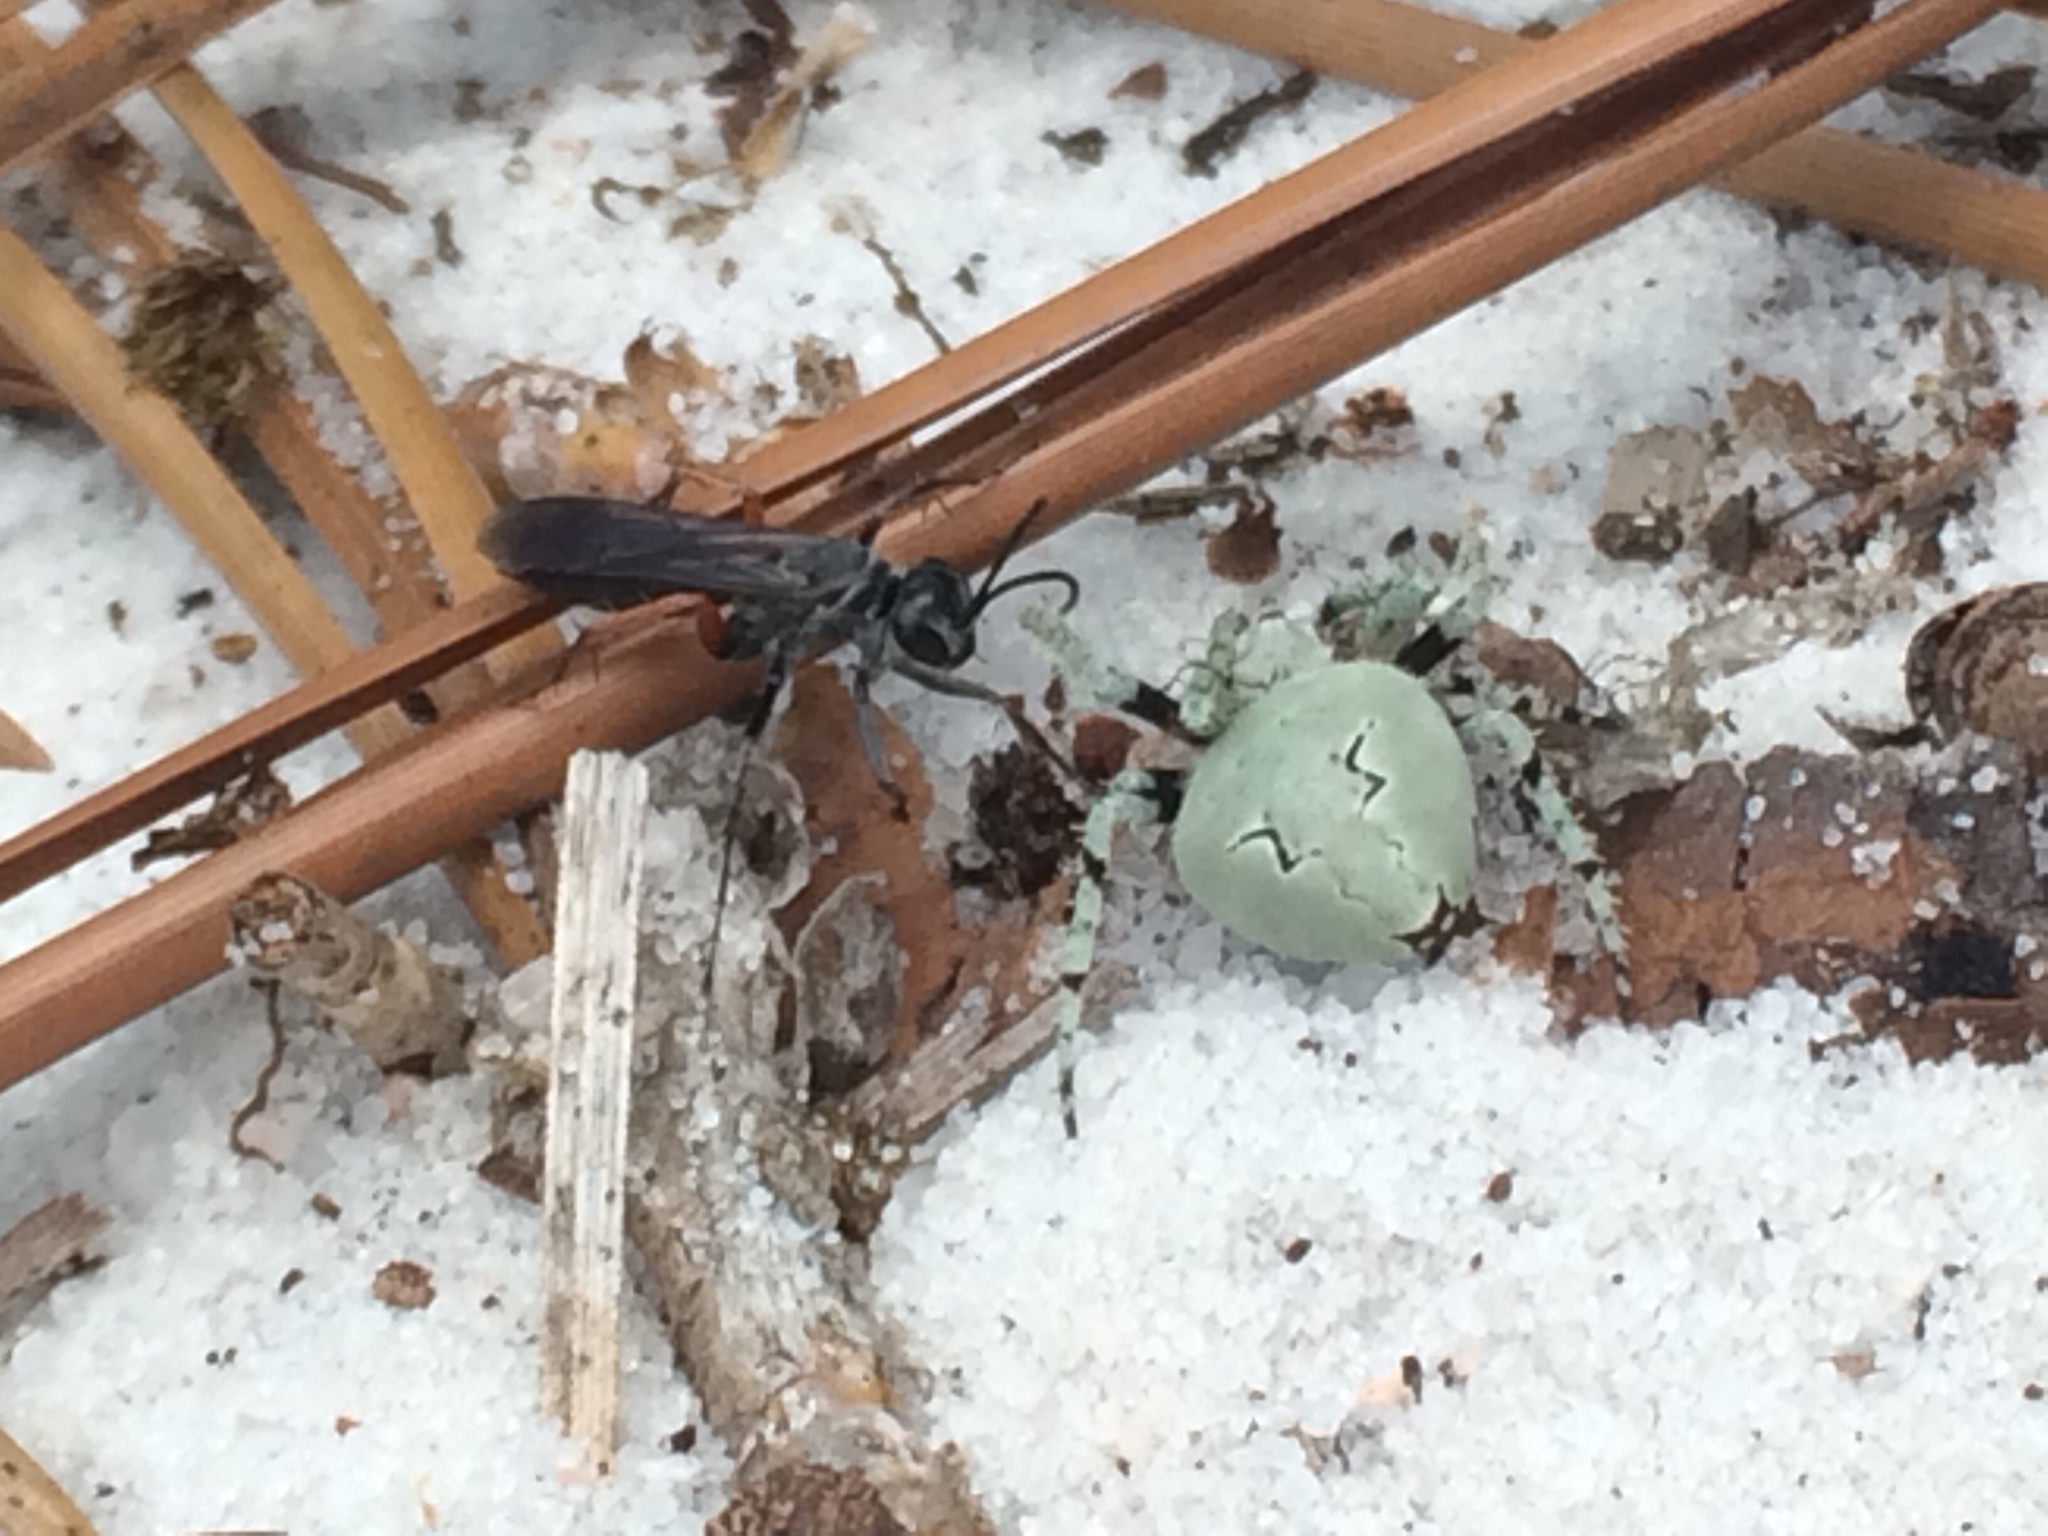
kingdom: Animalia
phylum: Arthropoda
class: Arachnida
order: Araneae
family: Araneidae
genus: Eustala
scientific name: Eustala anastera
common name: Orb weavers
